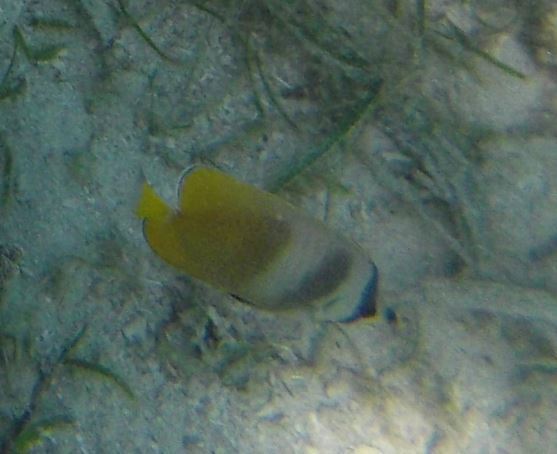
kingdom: Animalia
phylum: Chordata
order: Perciformes
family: Chaetodontidae
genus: Chaetodon
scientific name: Chaetodon kleinii
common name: Klein's butterflyfish
